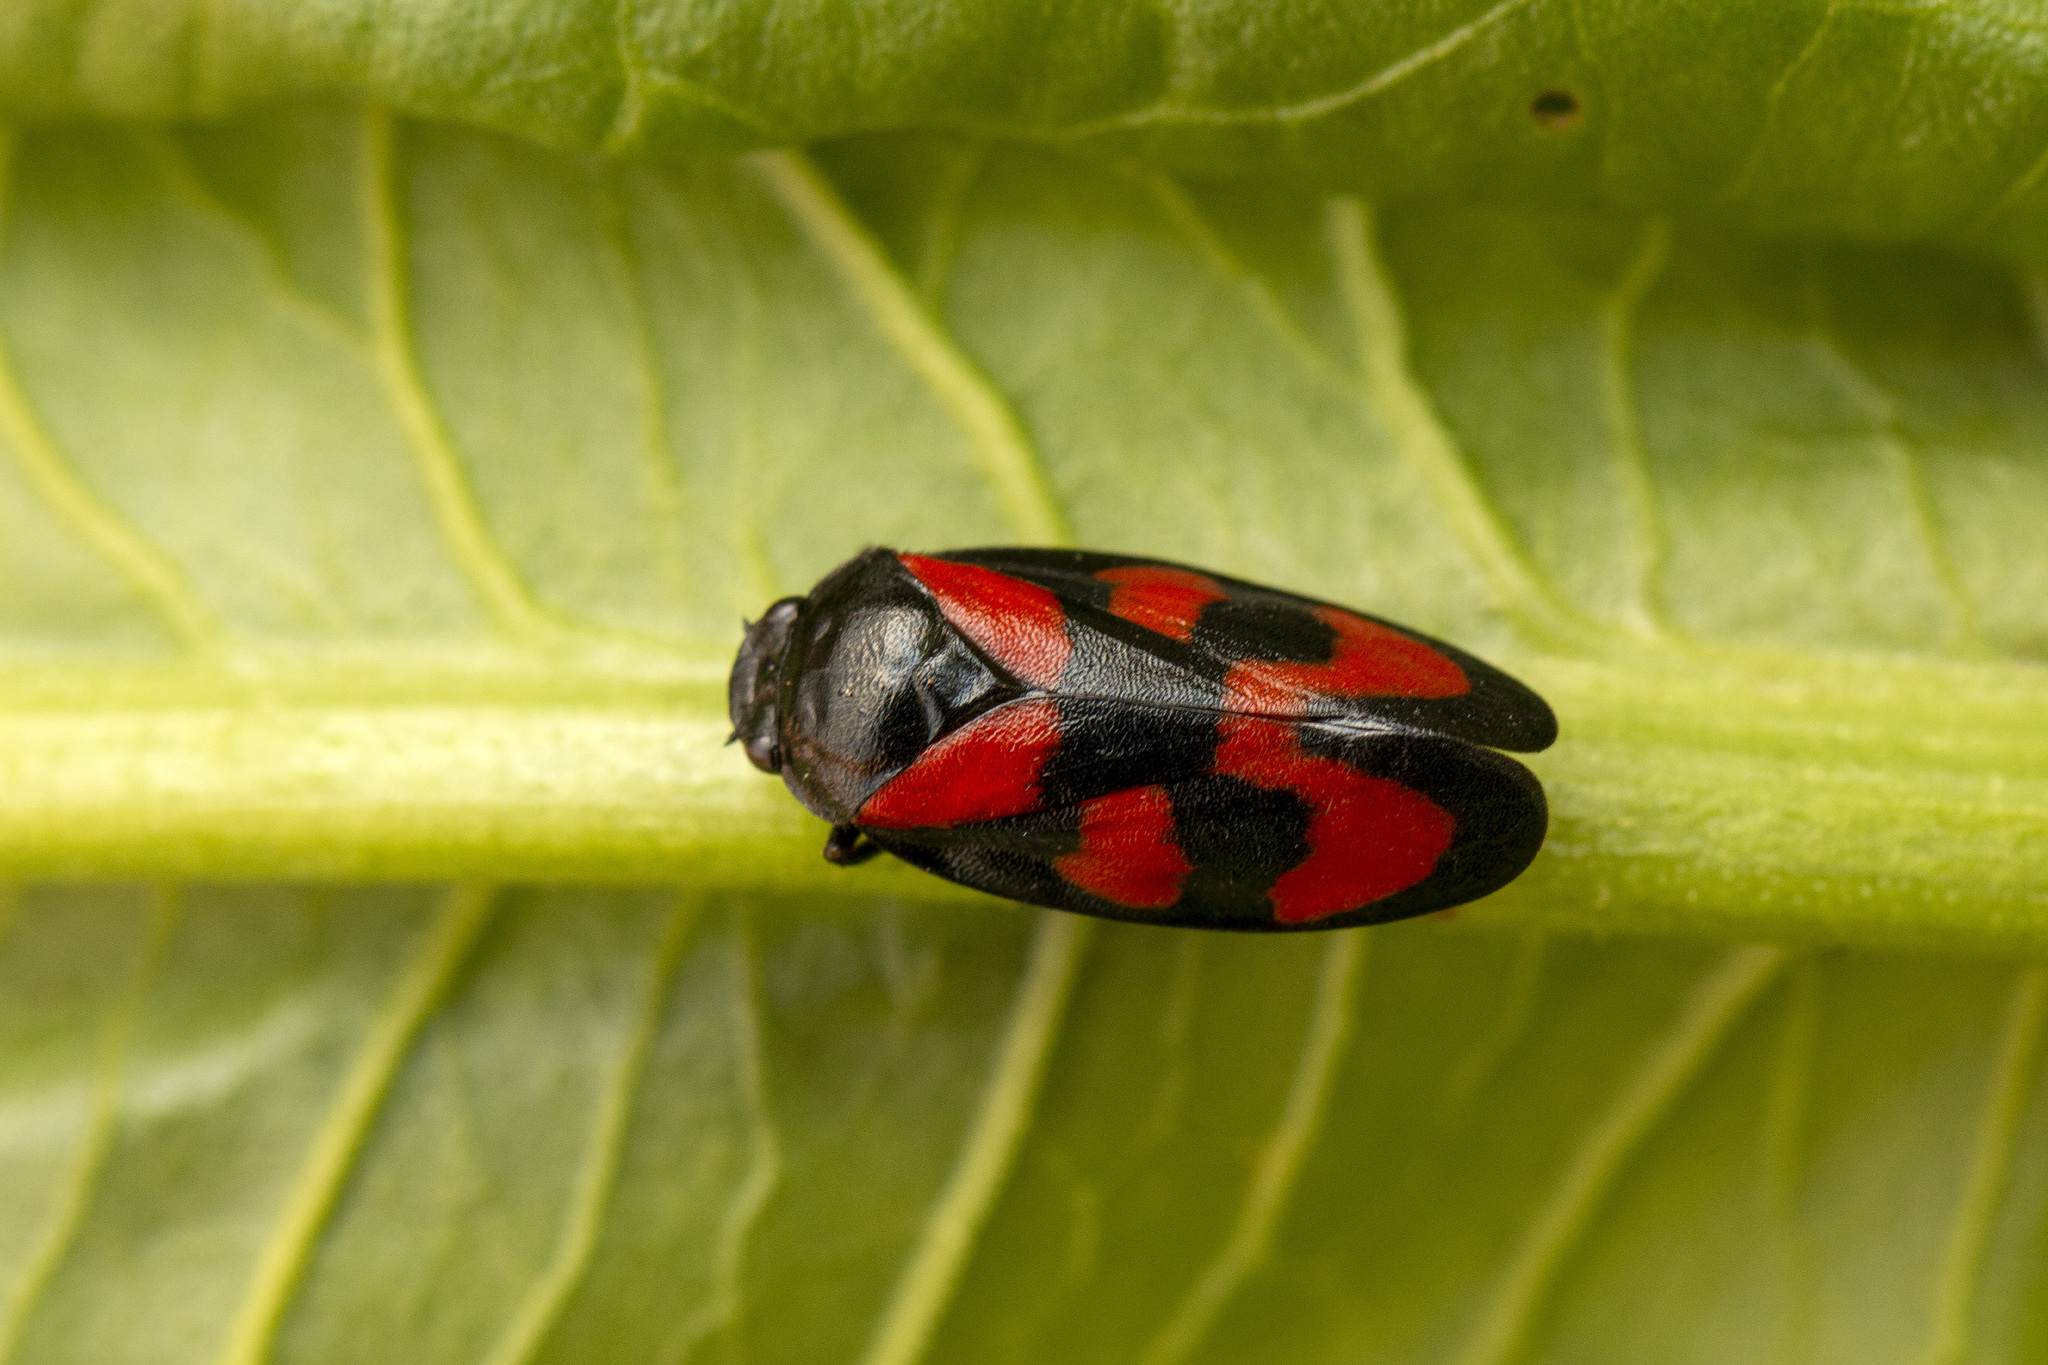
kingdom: Animalia
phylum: Arthropoda
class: Insecta
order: Hemiptera
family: Cercopidae
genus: Cercopis
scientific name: Cercopis vulnerata
